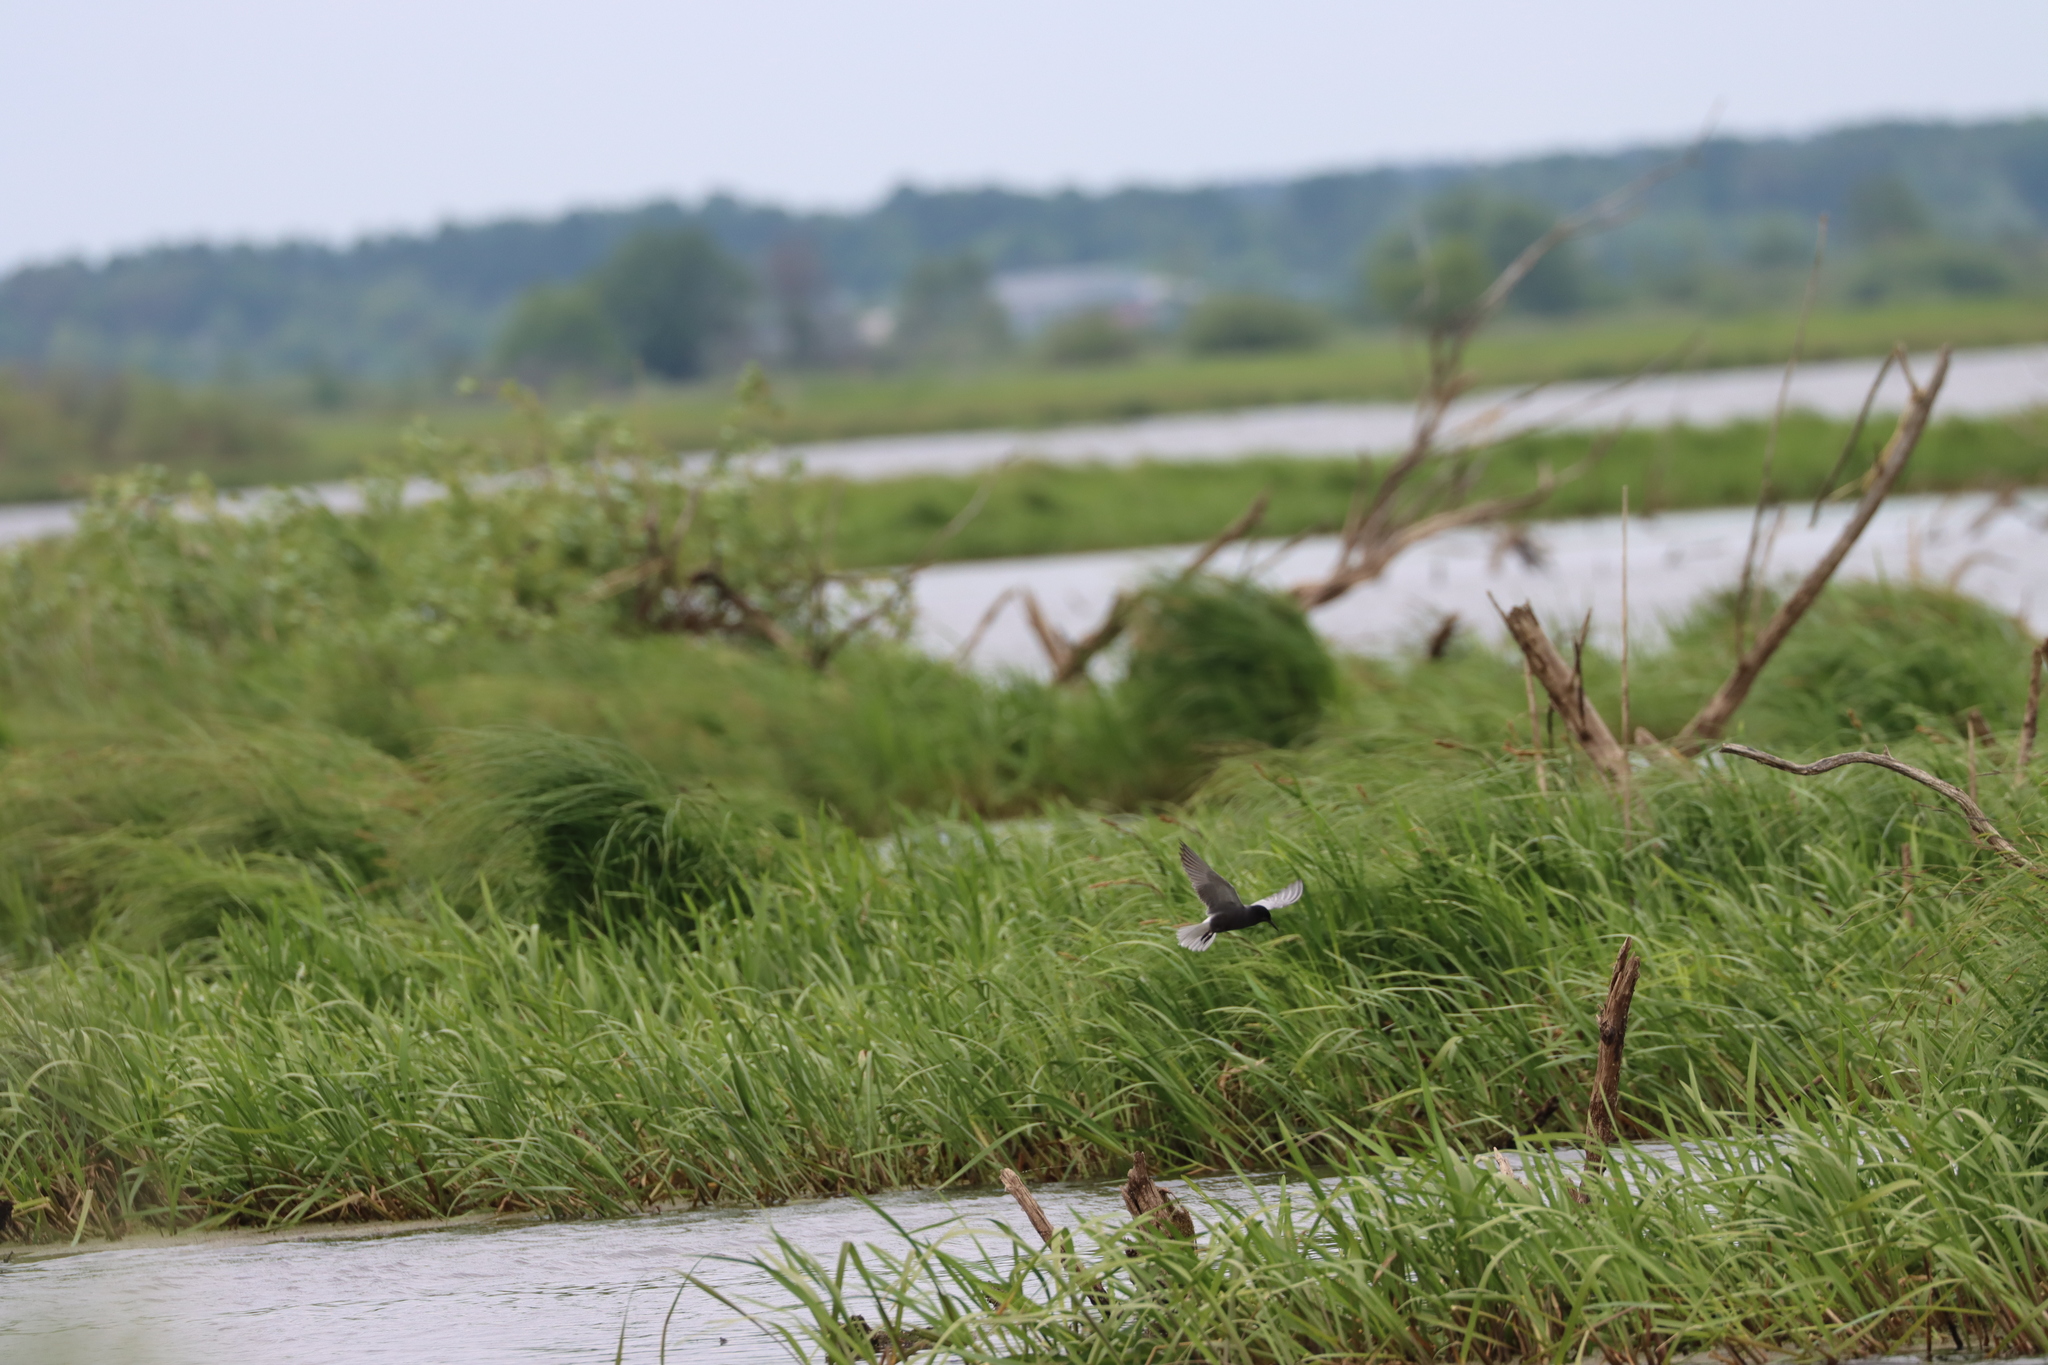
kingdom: Animalia
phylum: Chordata
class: Aves
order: Charadriiformes
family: Laridae
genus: Chlidonias
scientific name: Chlidonias niger
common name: Black tern
